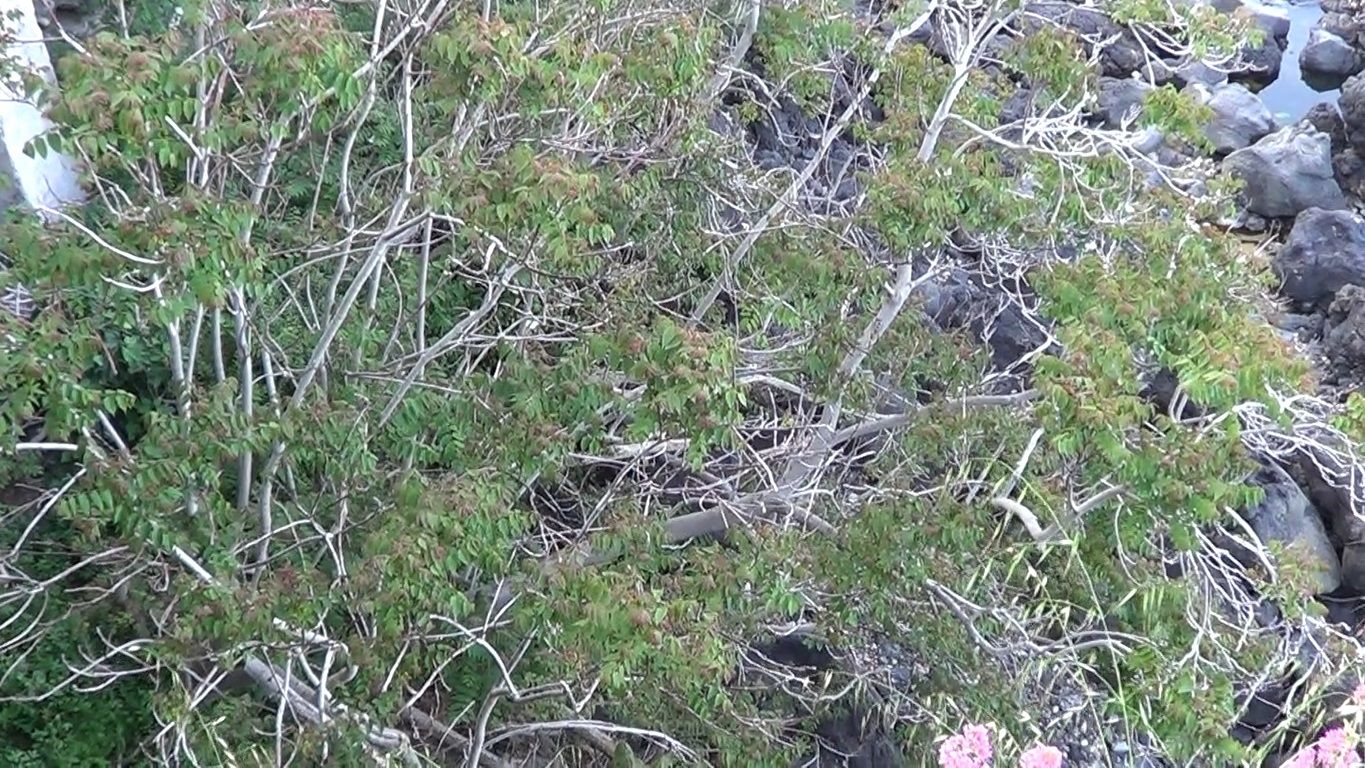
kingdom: Plantae
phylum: Tracheophyta
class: Magnoliopsida
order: Sapindales
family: Simaroubaceae
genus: Ailanthus
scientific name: Ailanthus altissima
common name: Tree-of-heaven
